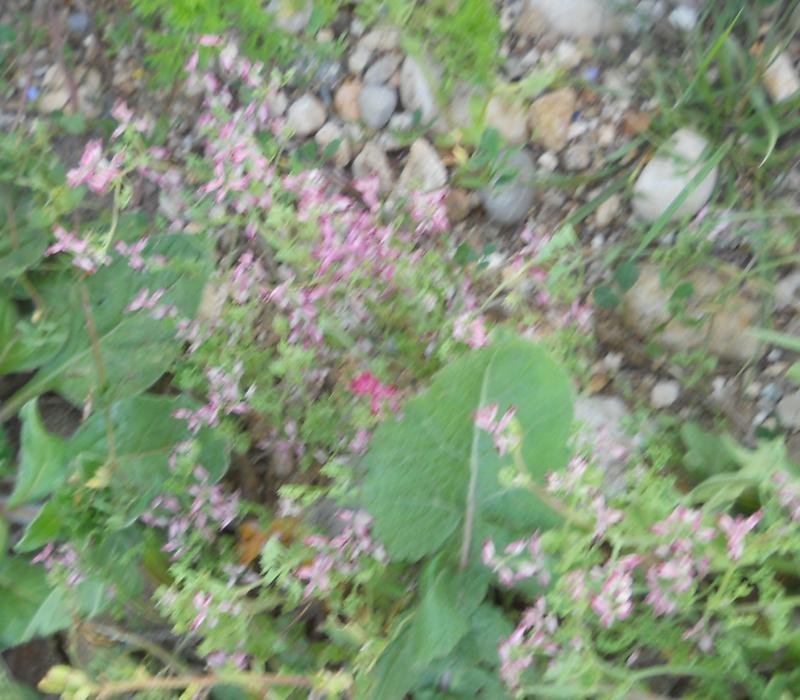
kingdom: Plantae
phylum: Tracheophyta
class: Magnoliopsida
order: Ranunculales
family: Papaveraceae
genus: Fumaria
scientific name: Fumaria kralikii
